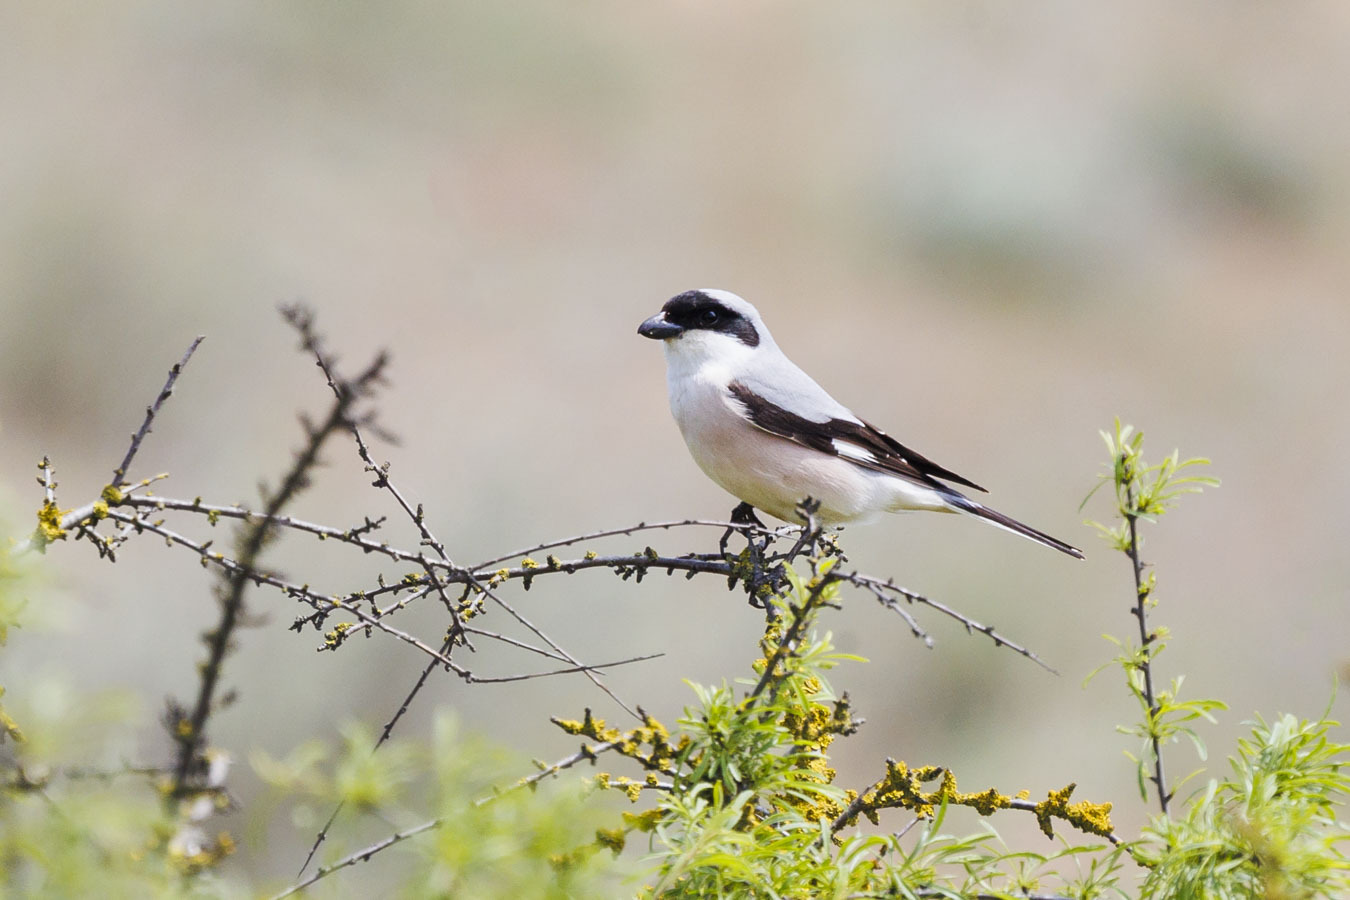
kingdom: Animalia
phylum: Chordata
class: Aves
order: Passeriformes
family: Laniidae
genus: Lanius
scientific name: Lanius minor
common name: Lesser grey shrike
